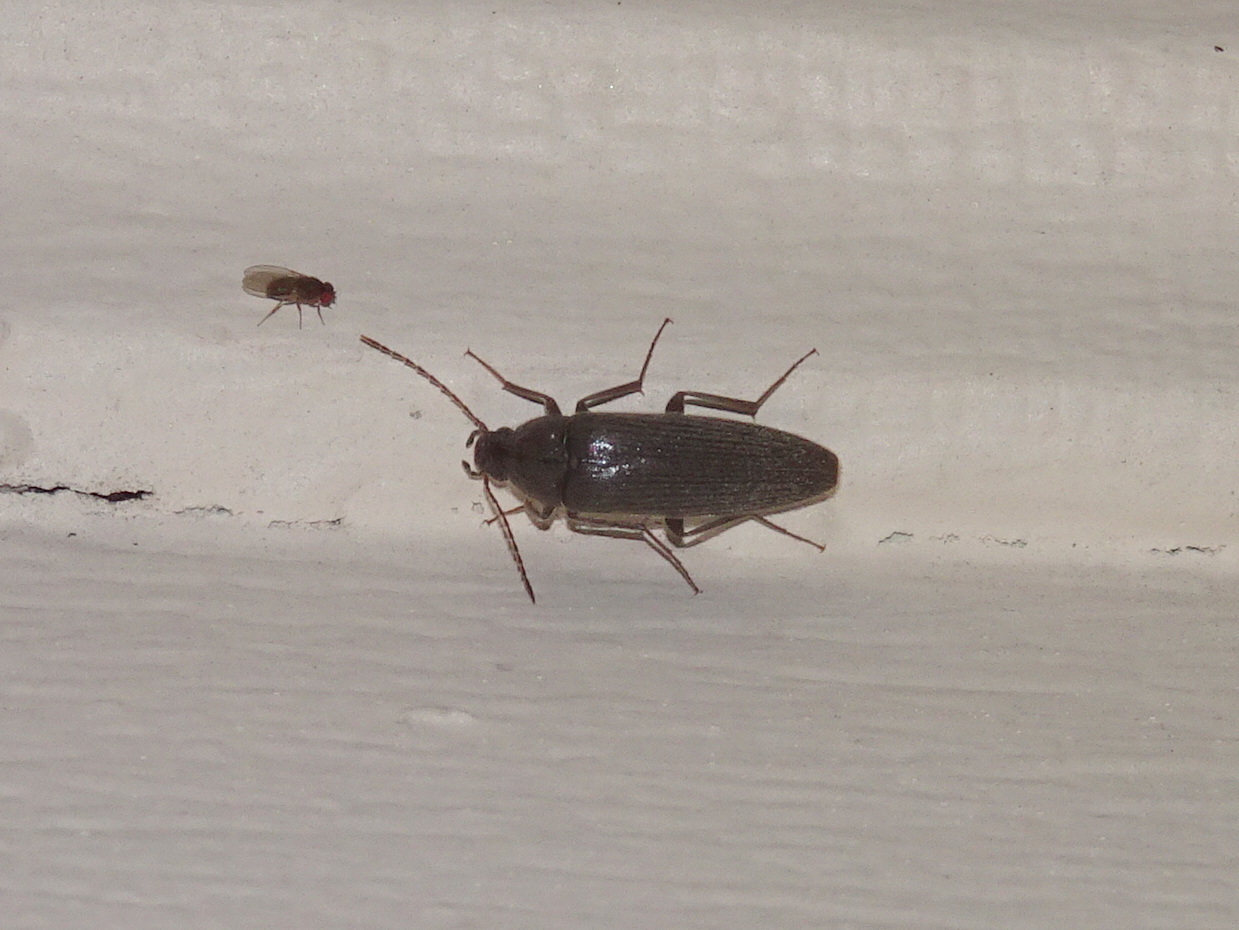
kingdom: Animalia
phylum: Arthropoda
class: Insecta
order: Coleoptera
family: Synchroidae
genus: Synchroa
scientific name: Synchroa punctata
